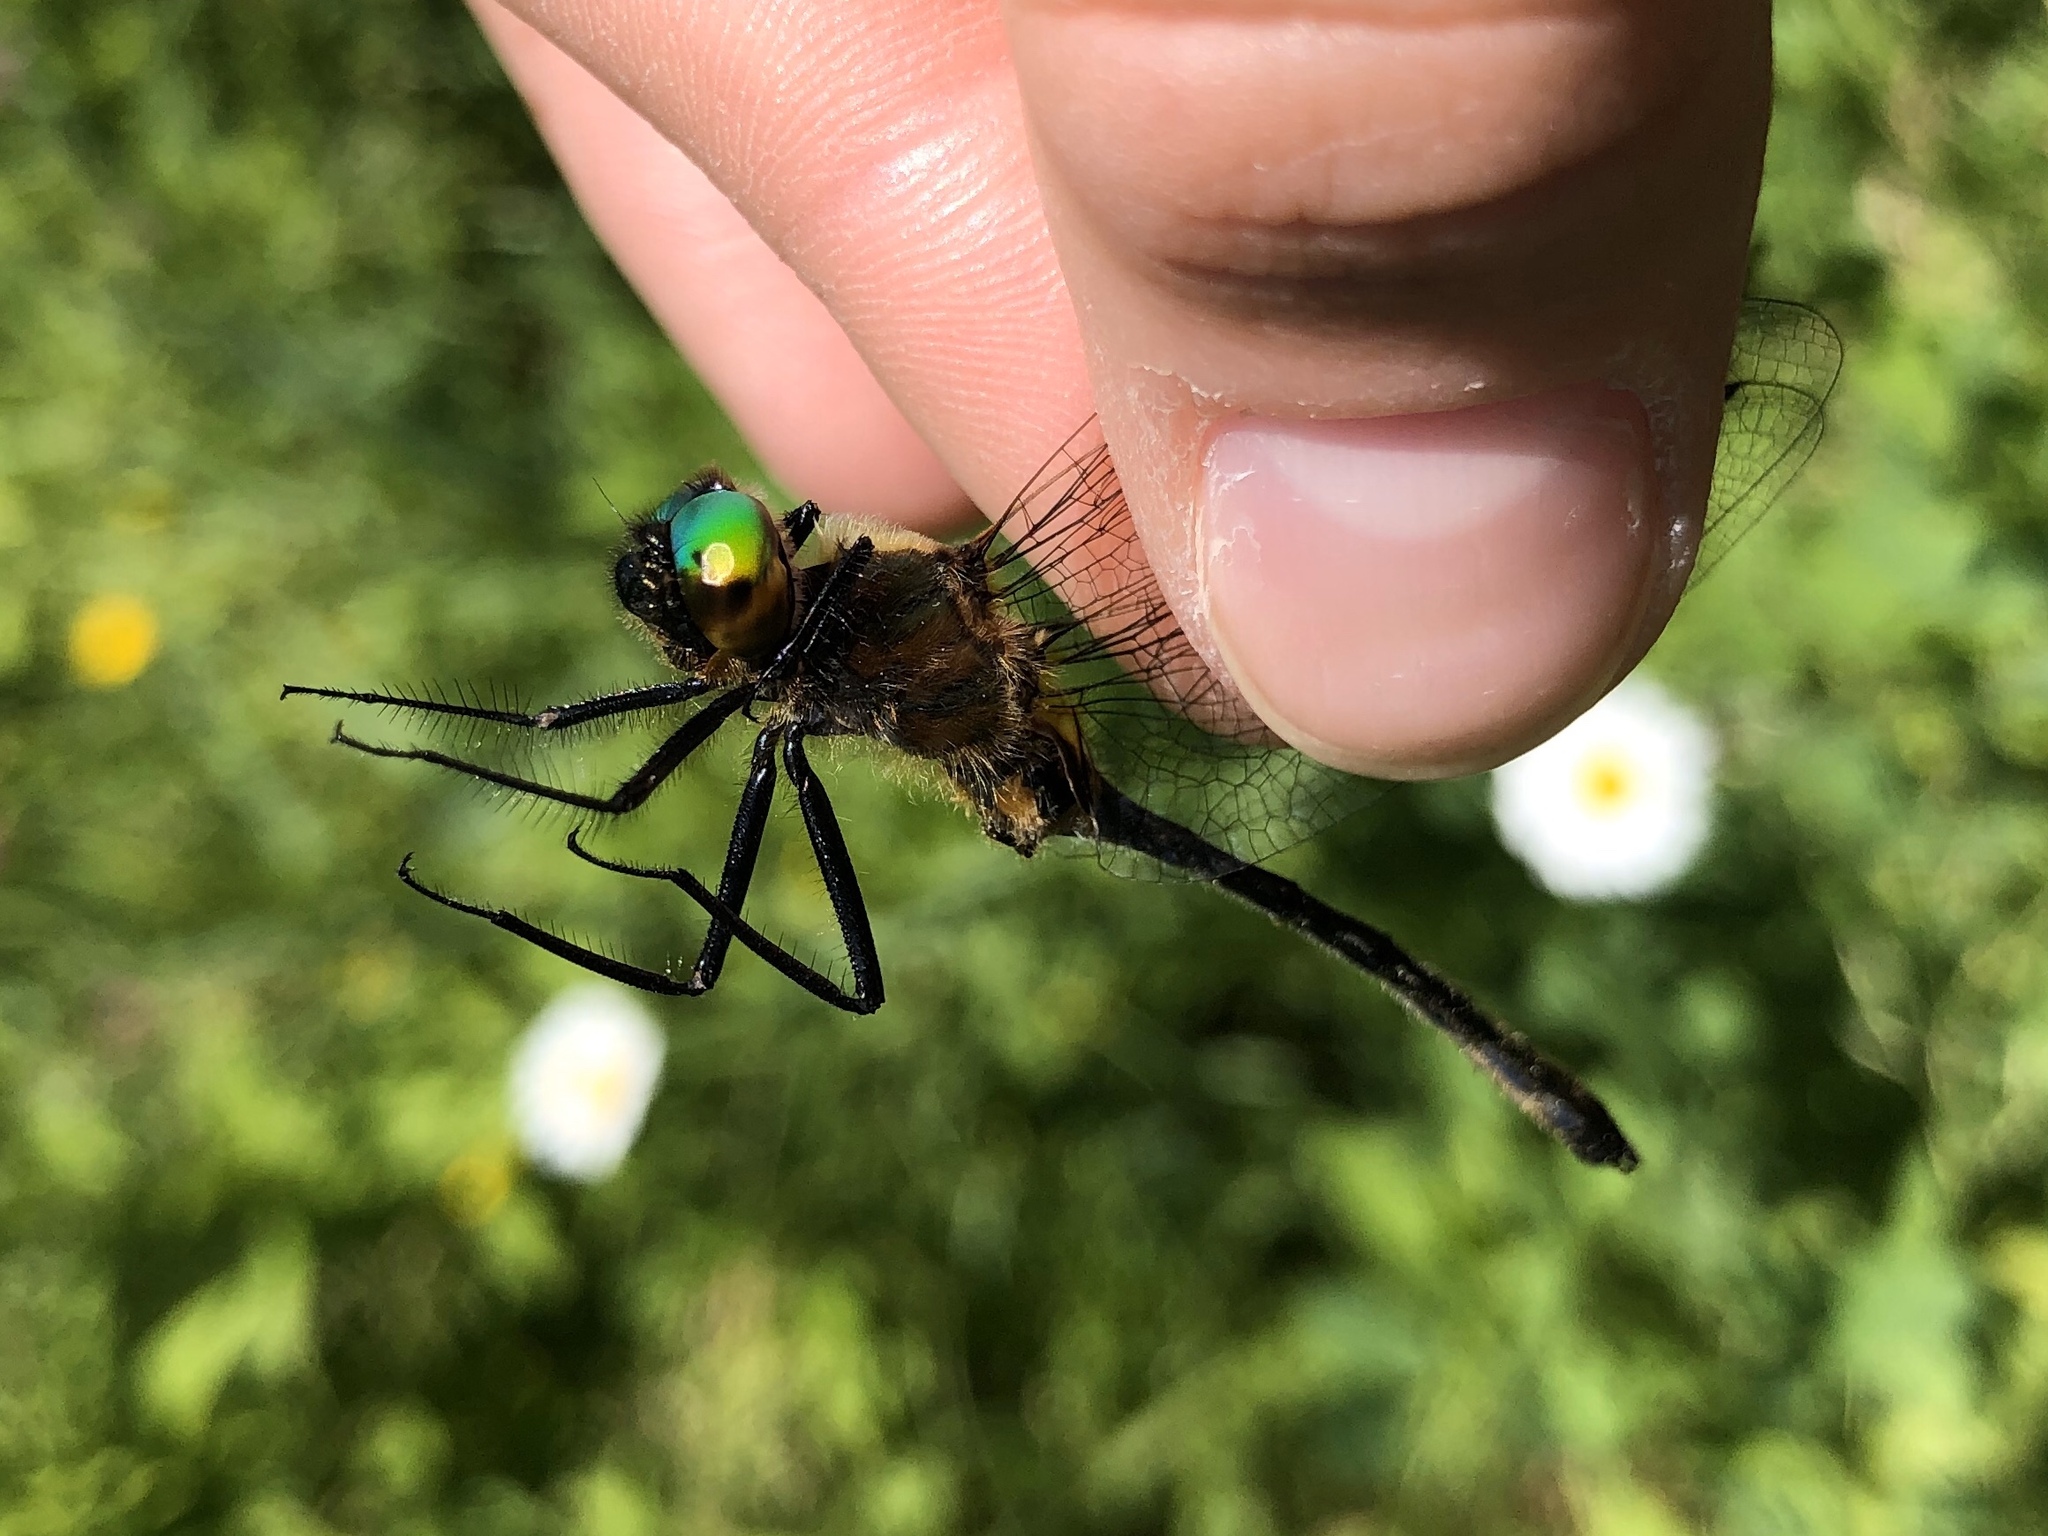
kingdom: Animalia
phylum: Arthropoda
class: Insecta
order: Odonata
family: Corduliidae
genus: Dorocordulia
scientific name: Dorocordulia libera
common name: Racket-tailed emerald
